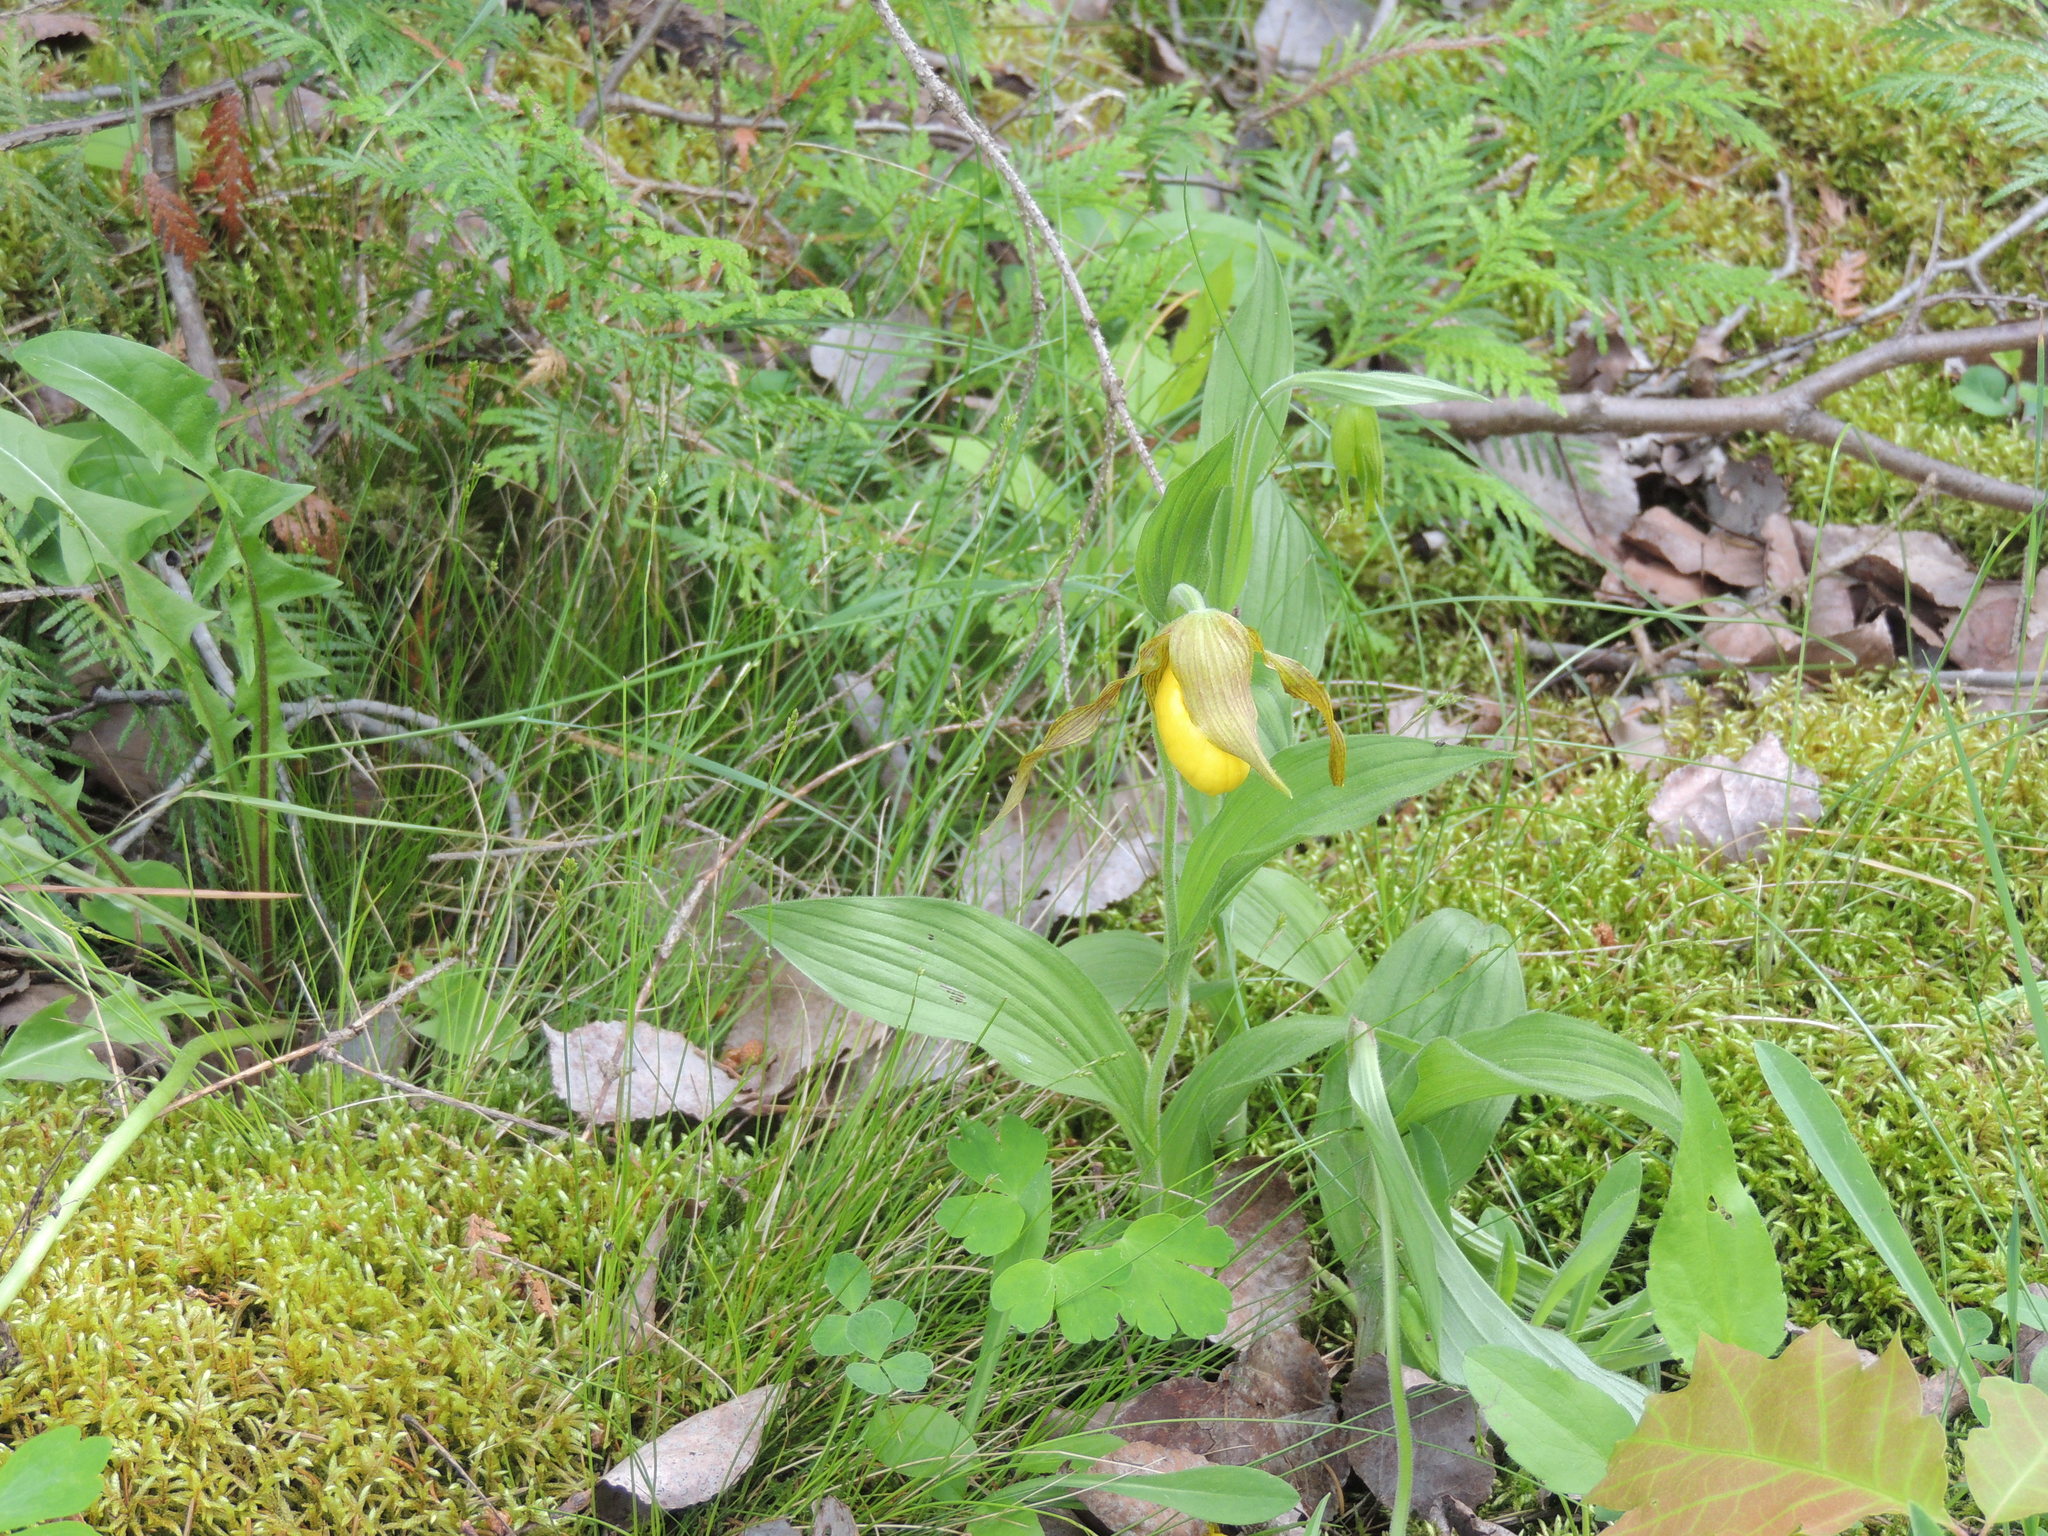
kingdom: Plantae
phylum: Tracheophyta
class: Liliopsida
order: Asparagales
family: Orchidaceae
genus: Cypripedium
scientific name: Cypripedium parviflorum
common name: American yellow lady's-slipper
